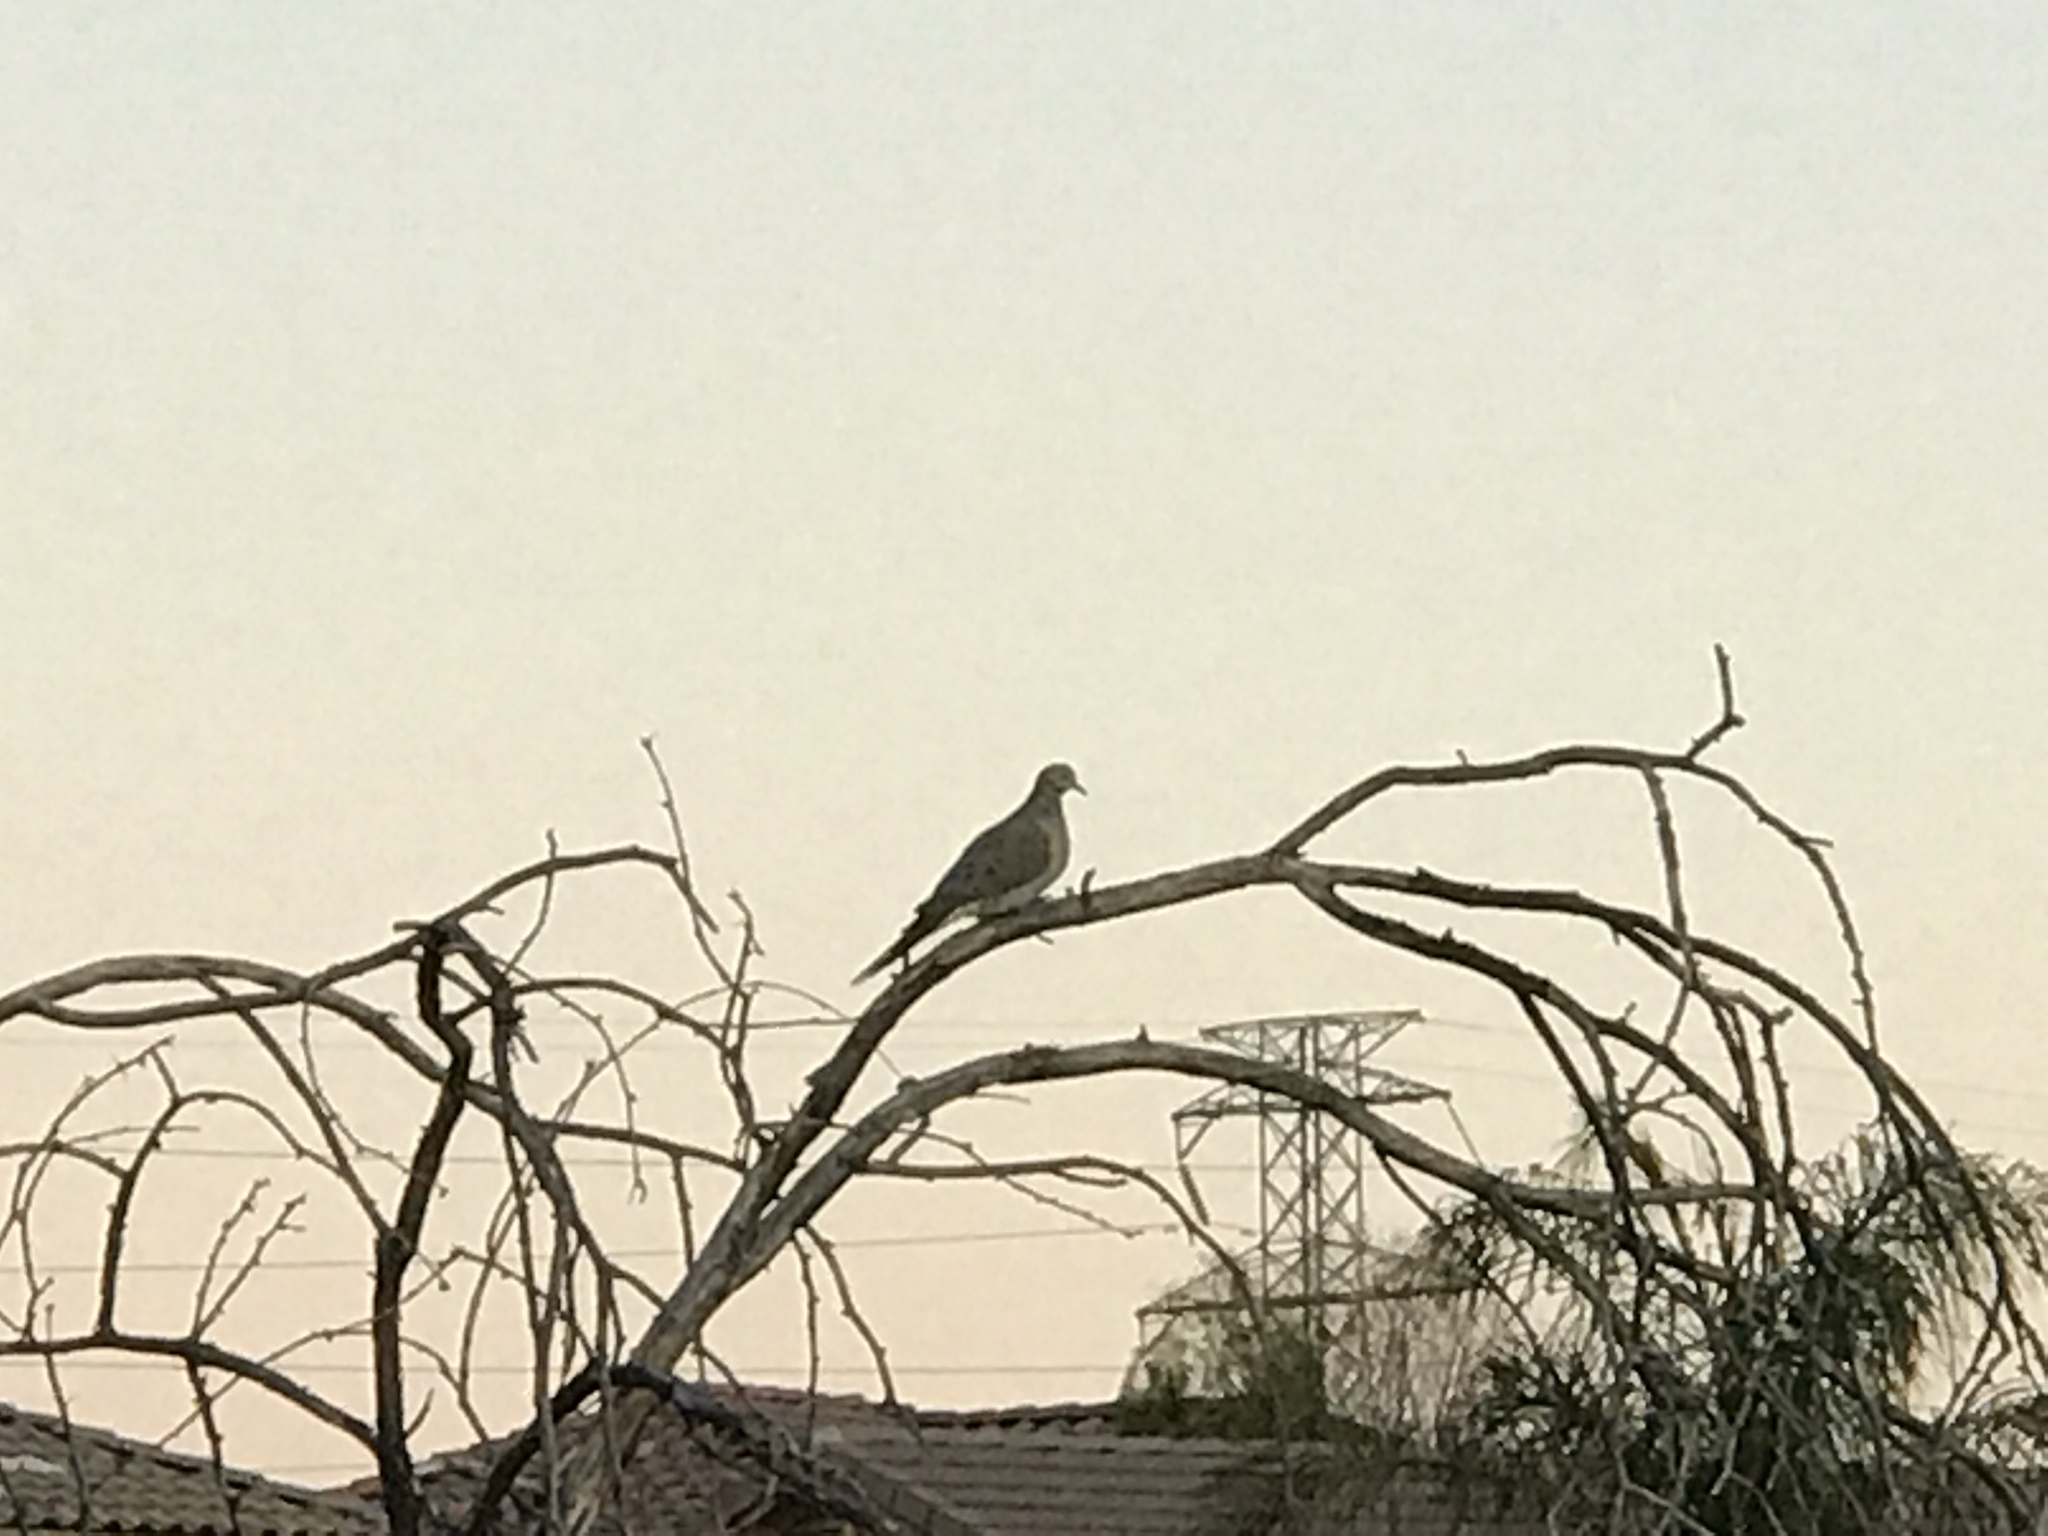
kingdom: Animalia
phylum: Chordata
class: Aves
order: Columbiformes
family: Columbidae
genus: Zenaida
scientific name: Zenaida macroura
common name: Mourning dove
